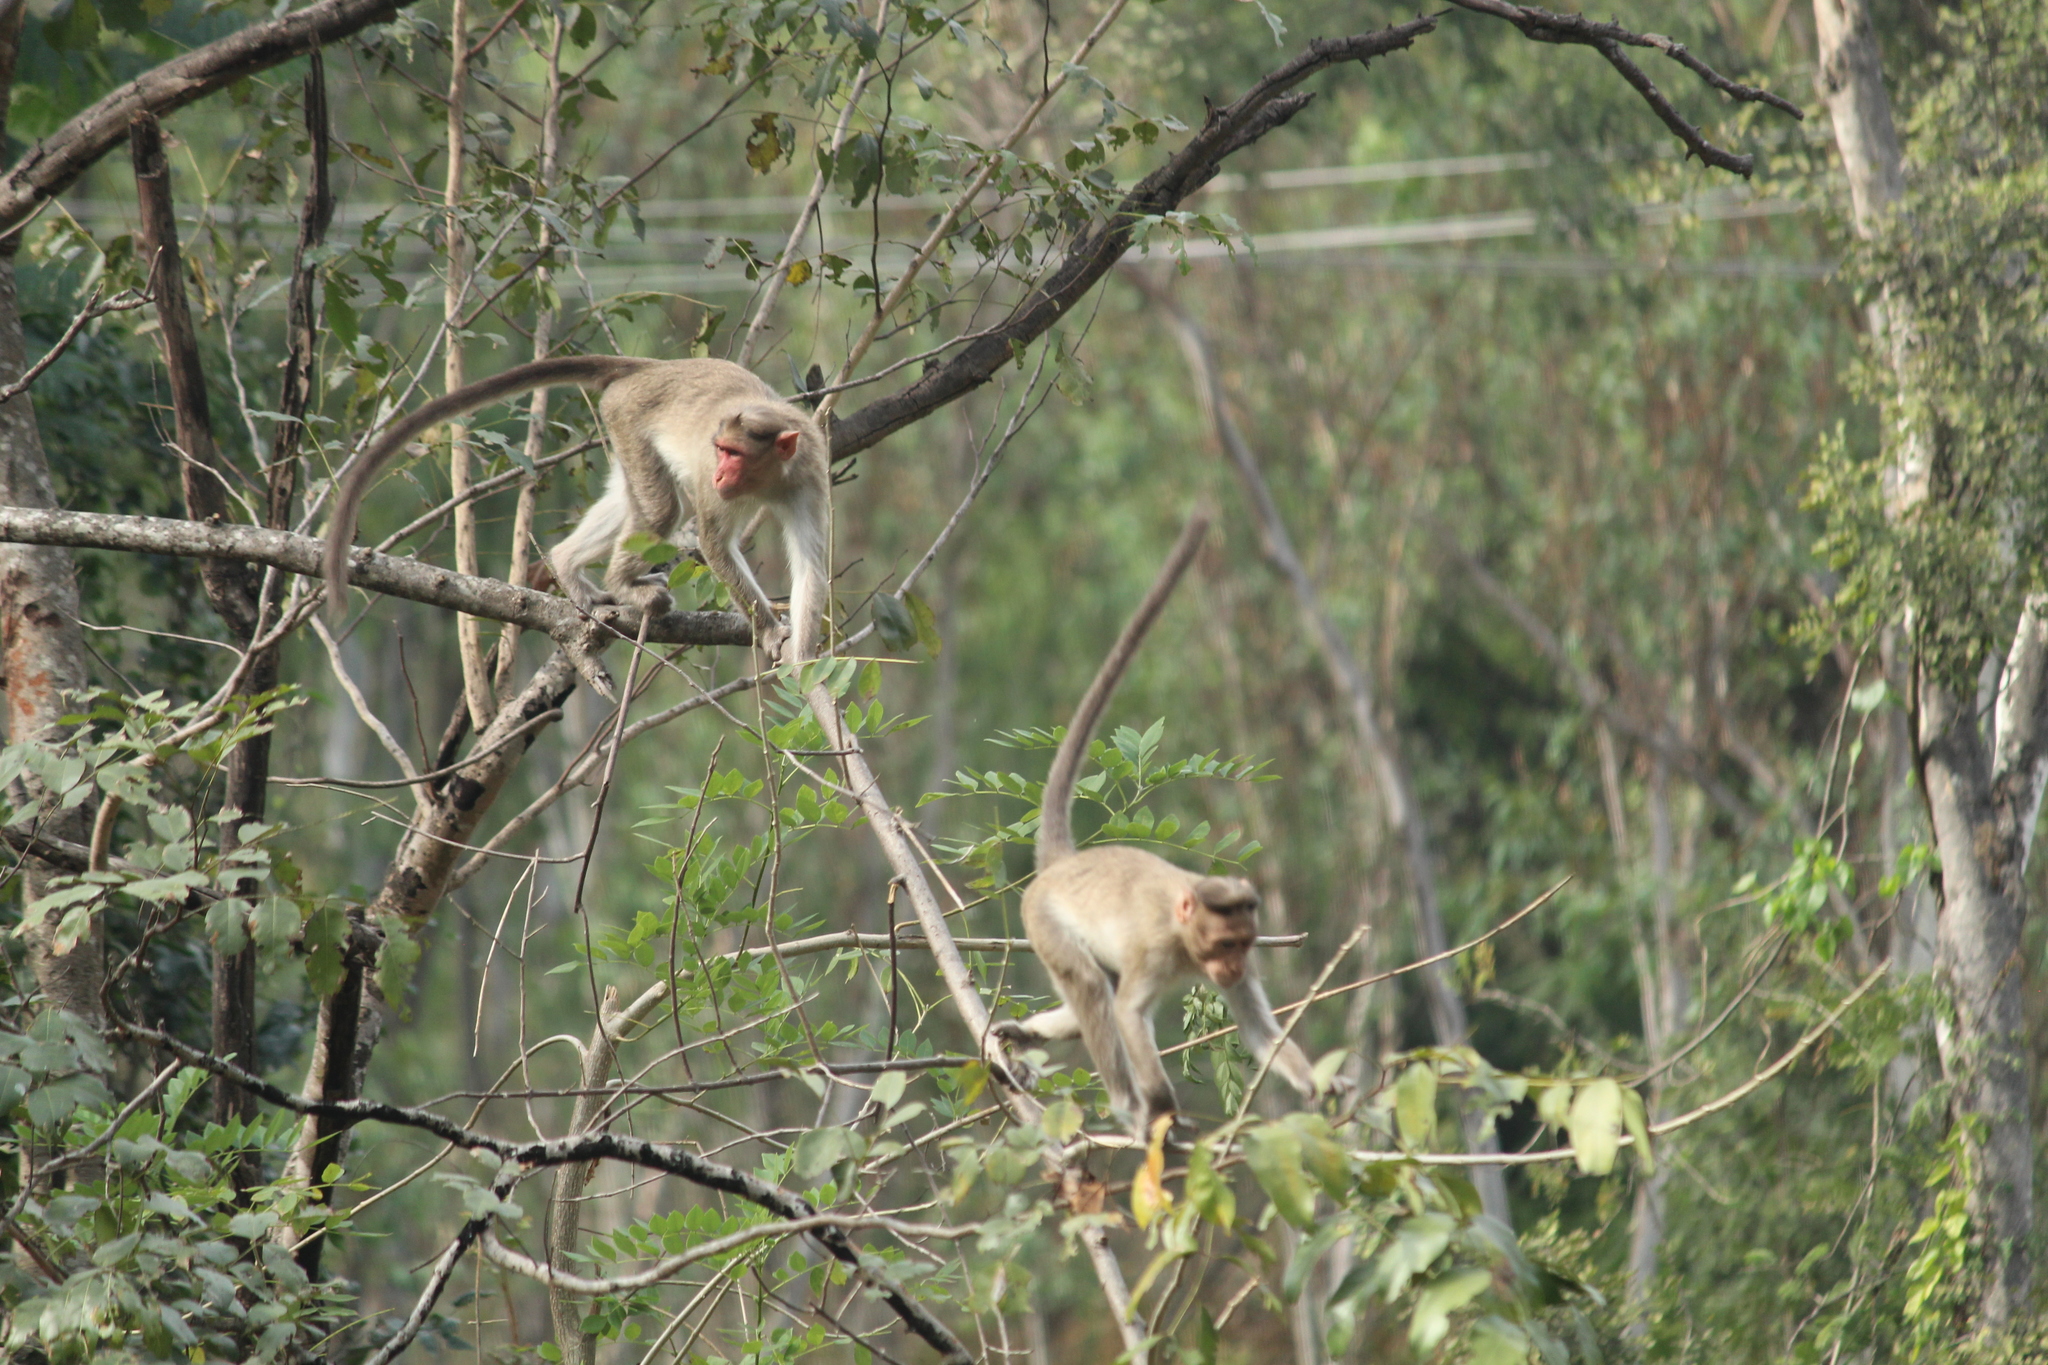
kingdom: Animalia
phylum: Chordata
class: Mammalia
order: Primates
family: Cercopithecidae
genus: Macaca
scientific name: Macaca radiata
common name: Bonnet macaque
